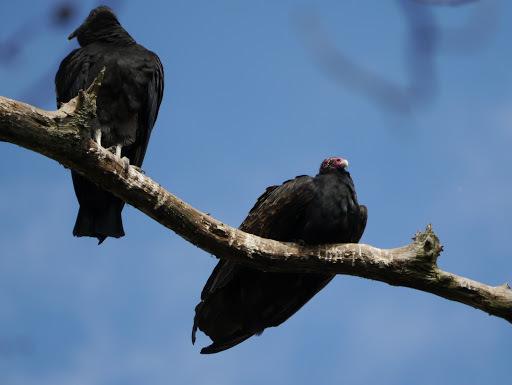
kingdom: Animalia
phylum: Chordata
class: Aves
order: Accipitriformes
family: Cathartidae
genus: Cathartes
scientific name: Cathartes aura
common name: Turkey vulture
